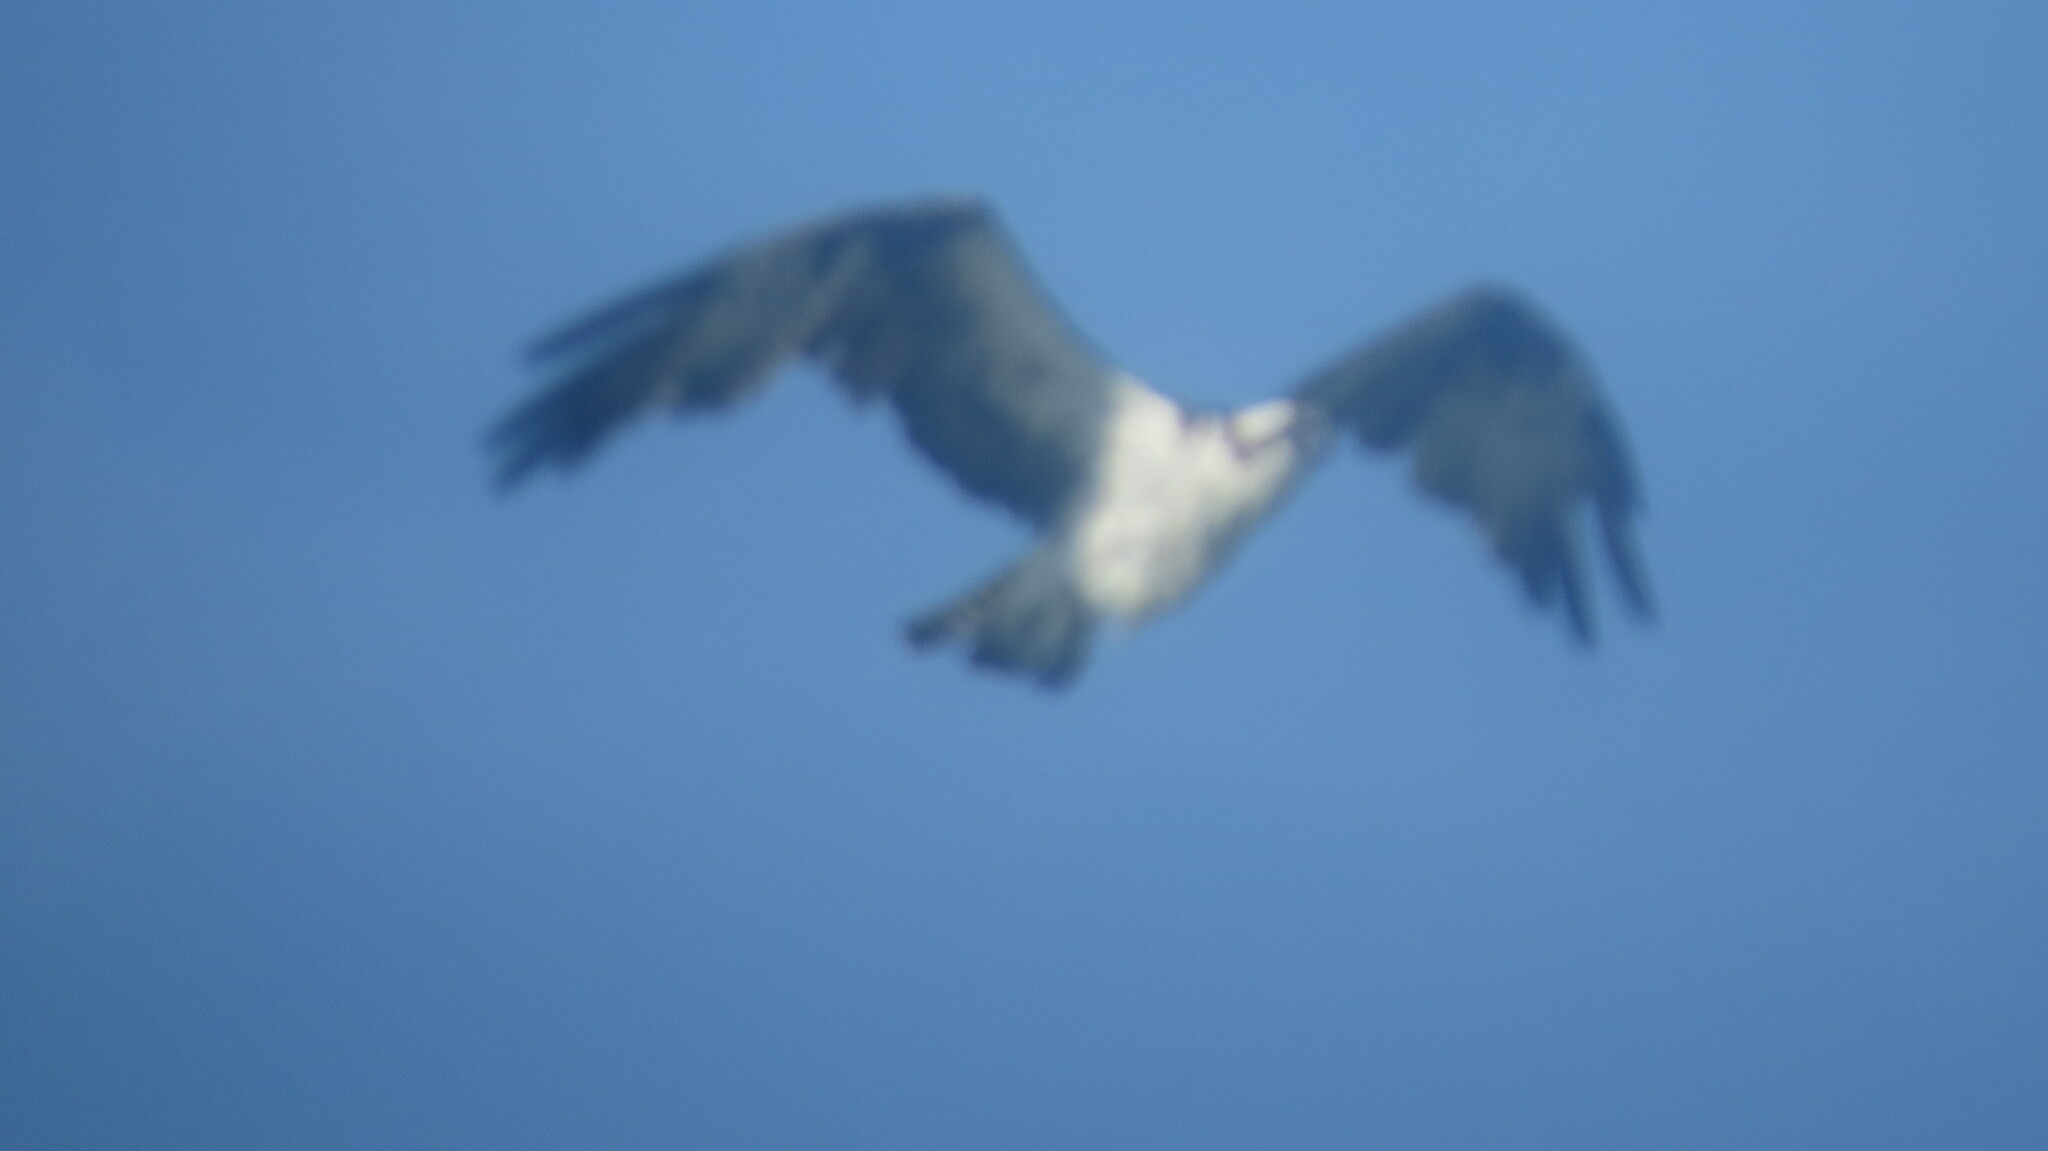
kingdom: Animalia
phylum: Chordata
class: Aves
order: Accipitriformes
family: Pandionidae
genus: Pandion
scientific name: Pandion haliaetus
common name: Osprey
